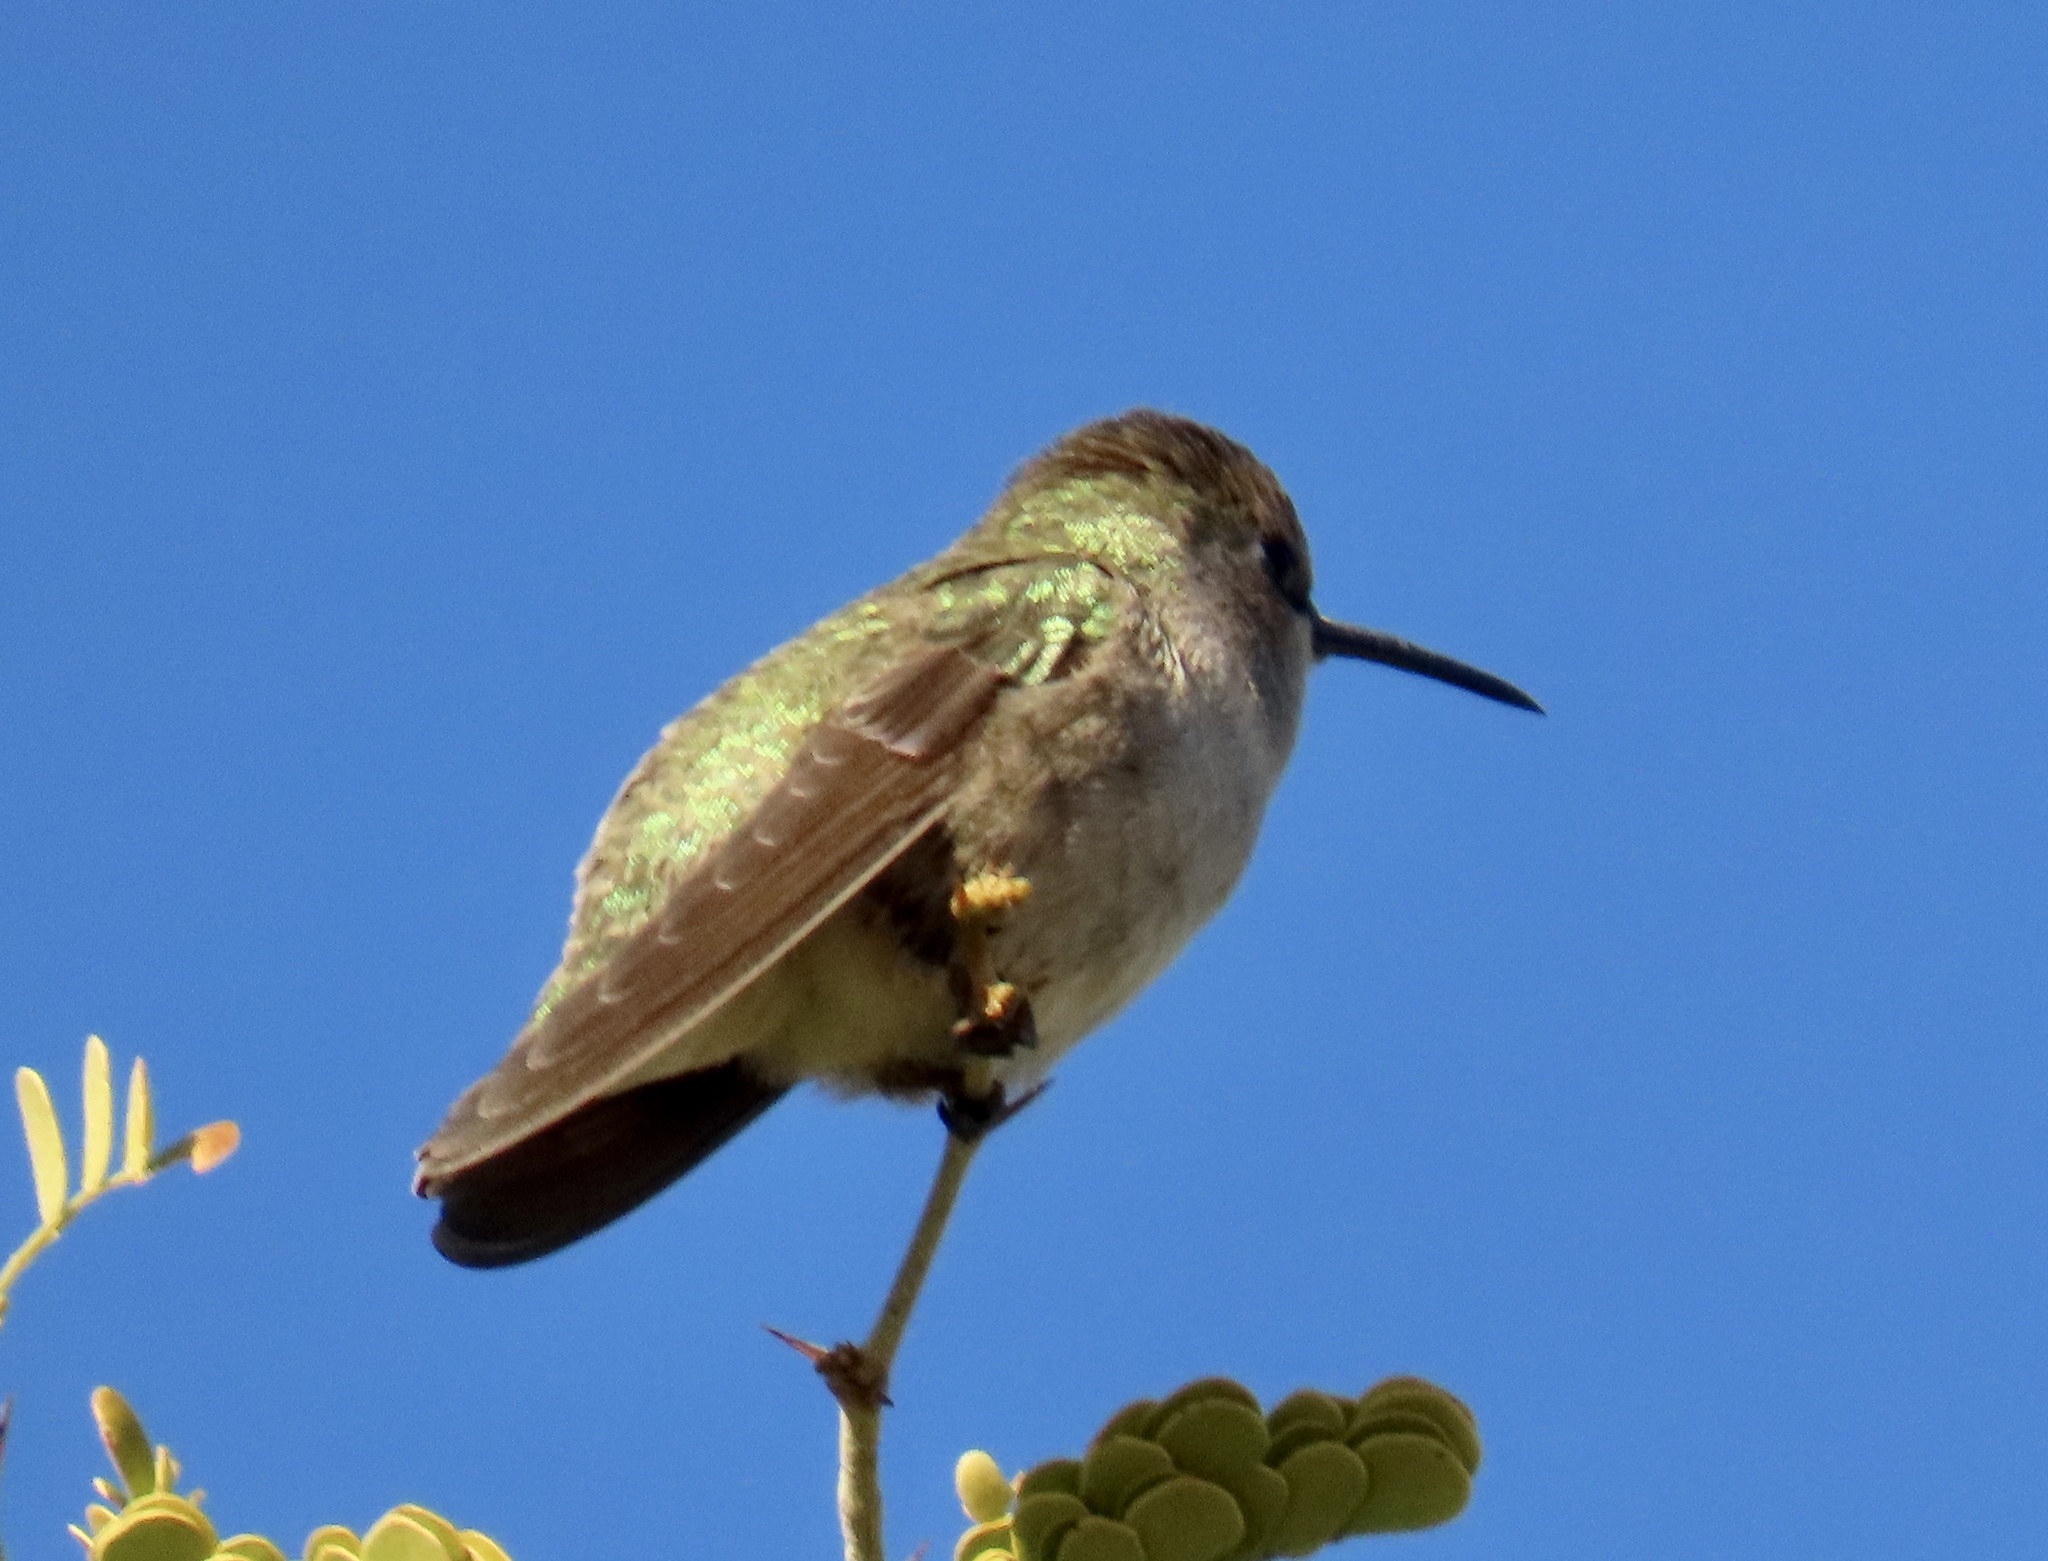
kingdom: Animalia
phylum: Chordata
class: Aves
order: Apodiformes
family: Trochilidae
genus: Calypte
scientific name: Calypte costae
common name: Costa's hummingbird
